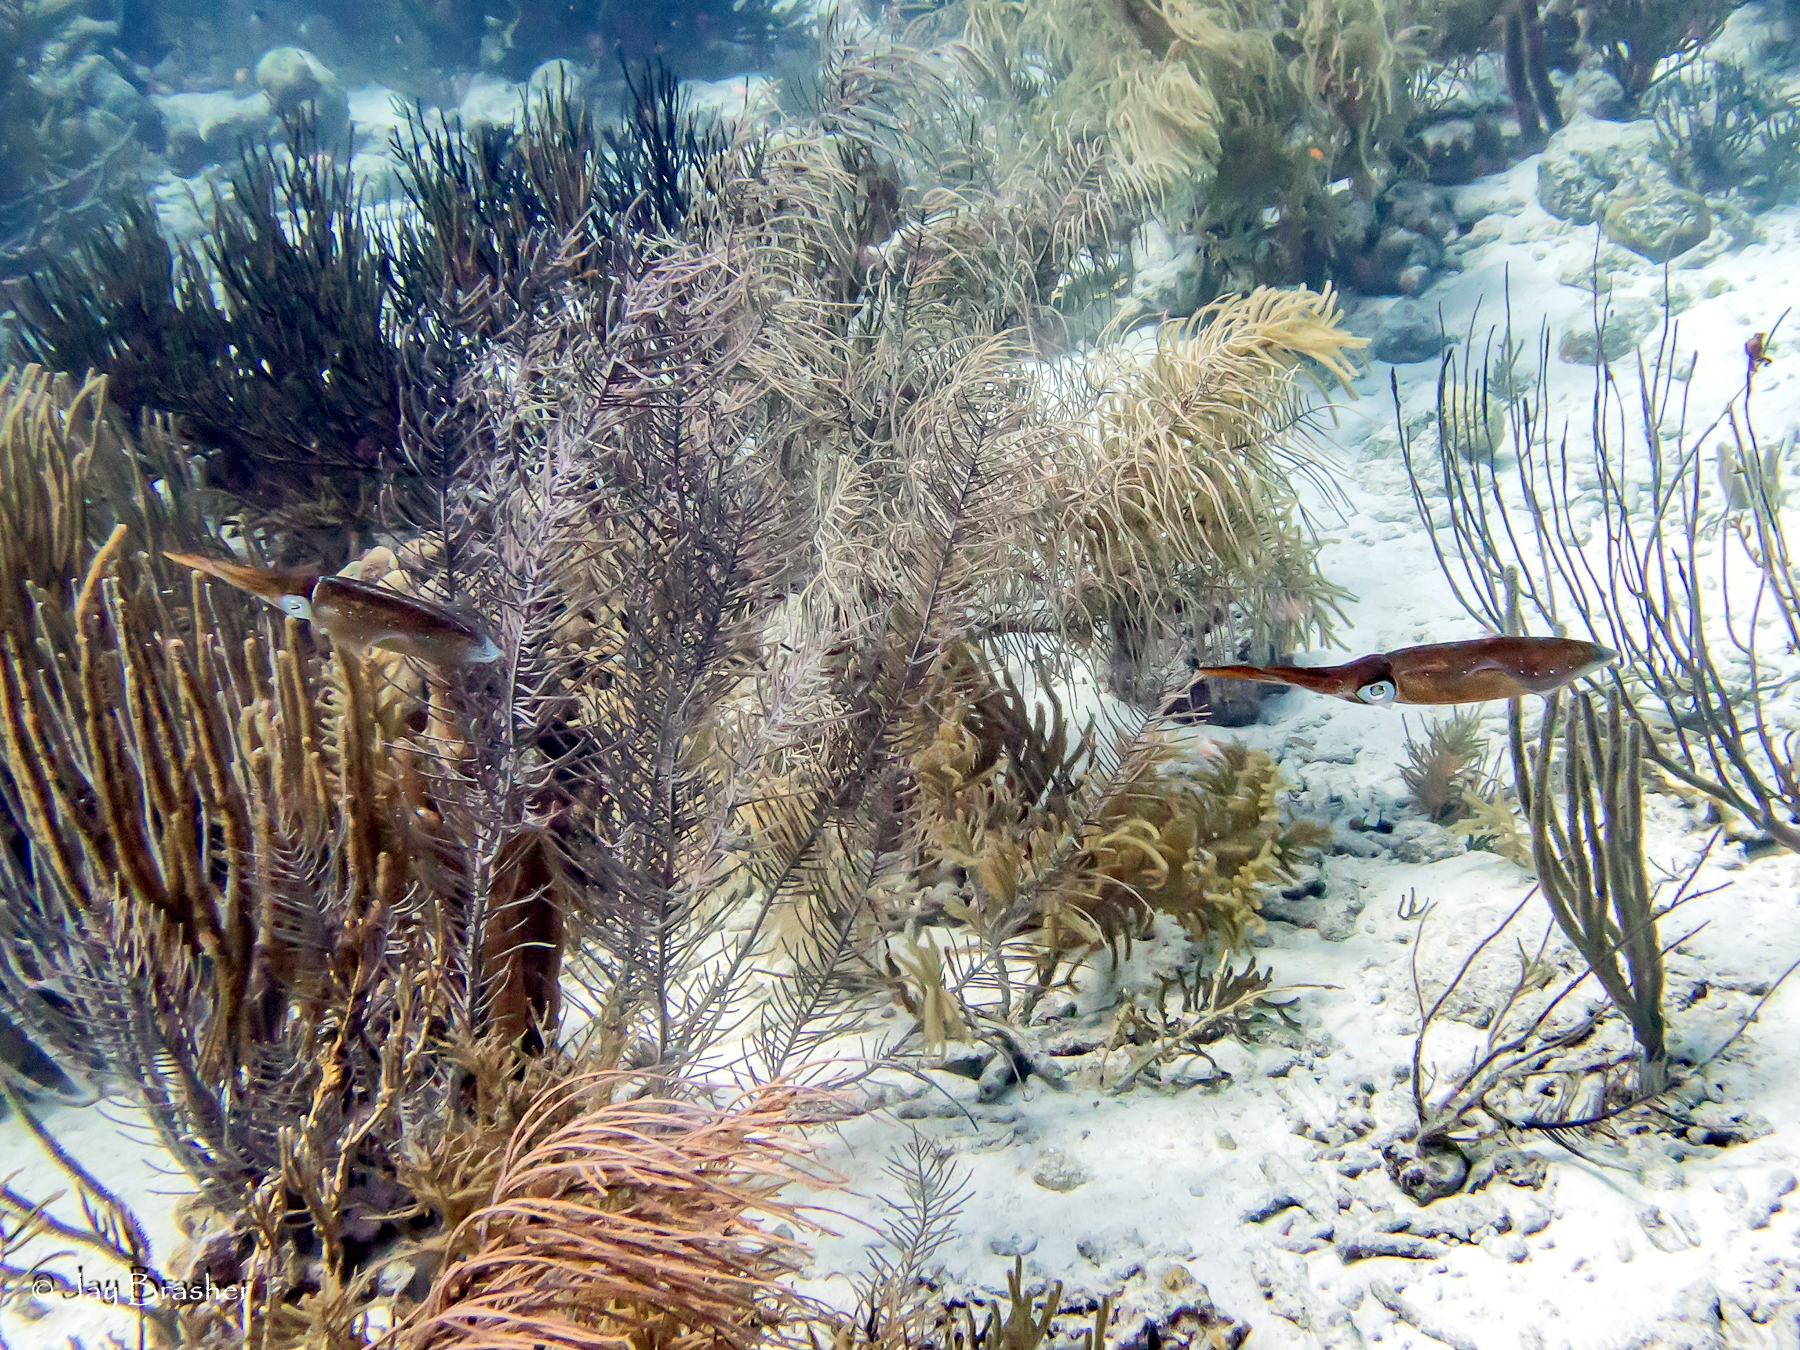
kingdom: Animalia
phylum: Mollusca
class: Cephalopoda
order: Myopsida
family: Loliginidae
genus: Sepioteuthis
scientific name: Sepioteuthis sepioidea
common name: Caribbean reef squid
